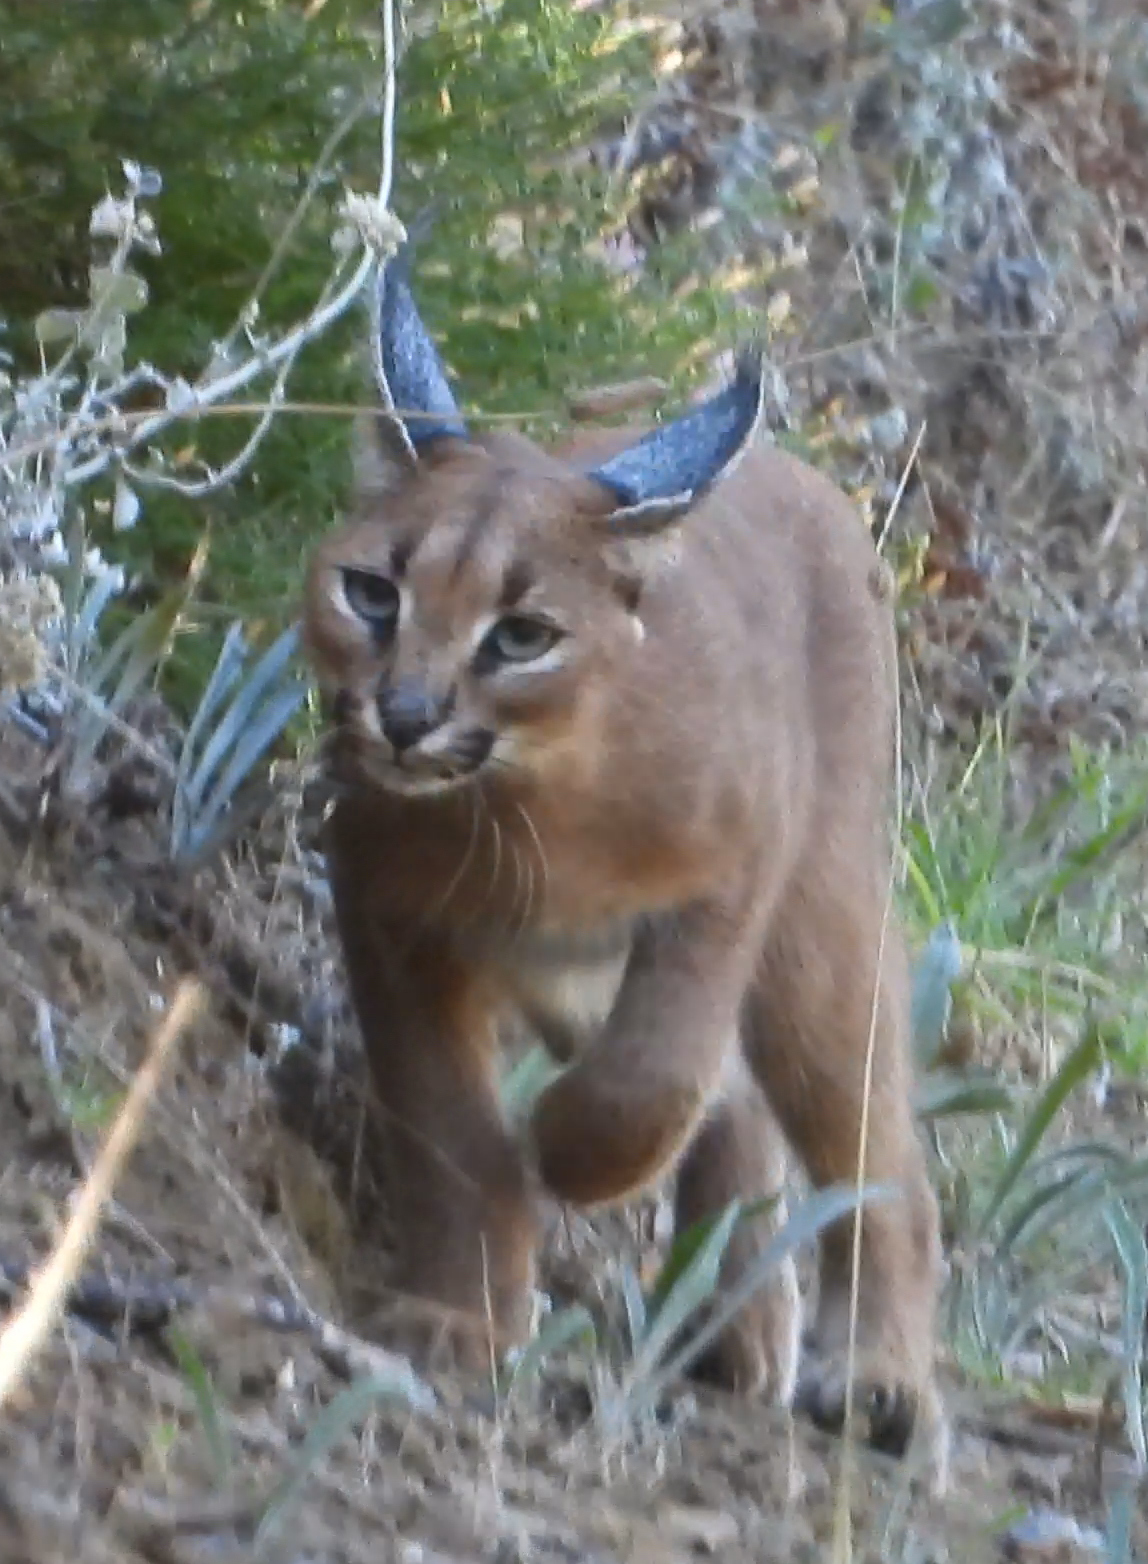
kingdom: Animalia
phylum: Chordata
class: Mammalia
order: Carnivora
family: Felidae
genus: Caracal
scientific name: Caracal caracal
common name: Caracal
